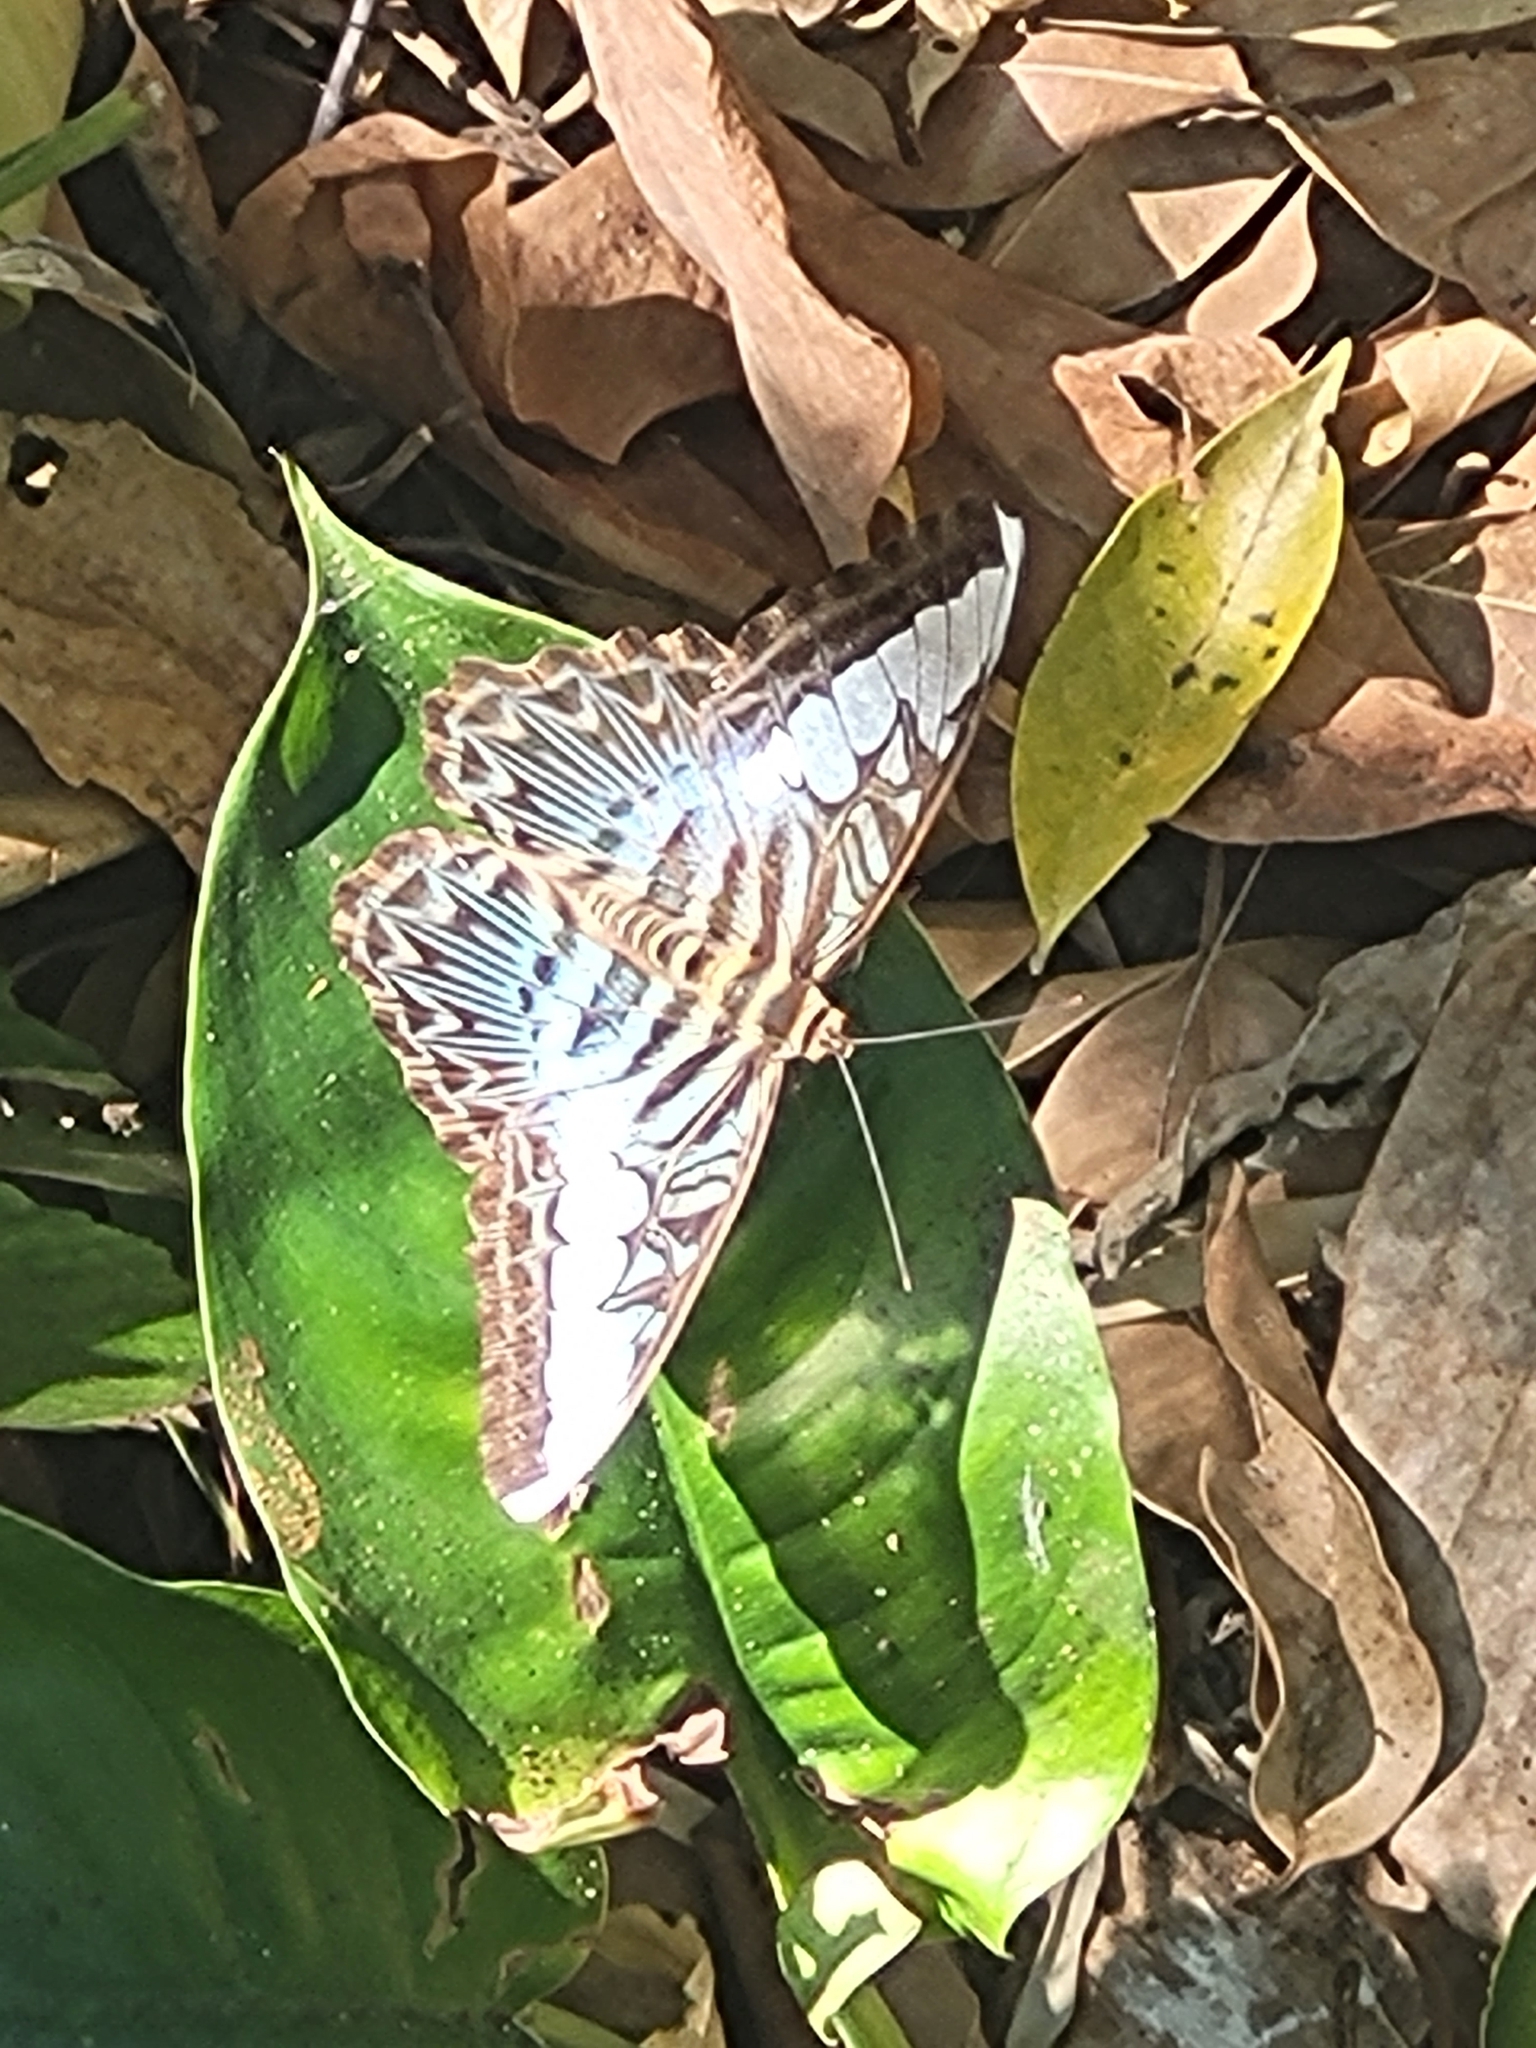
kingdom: Animalia
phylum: Arthropoda
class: Insecta
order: Lepidoptera
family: Nymphalidae
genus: Kallima
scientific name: Kallima sylvia
